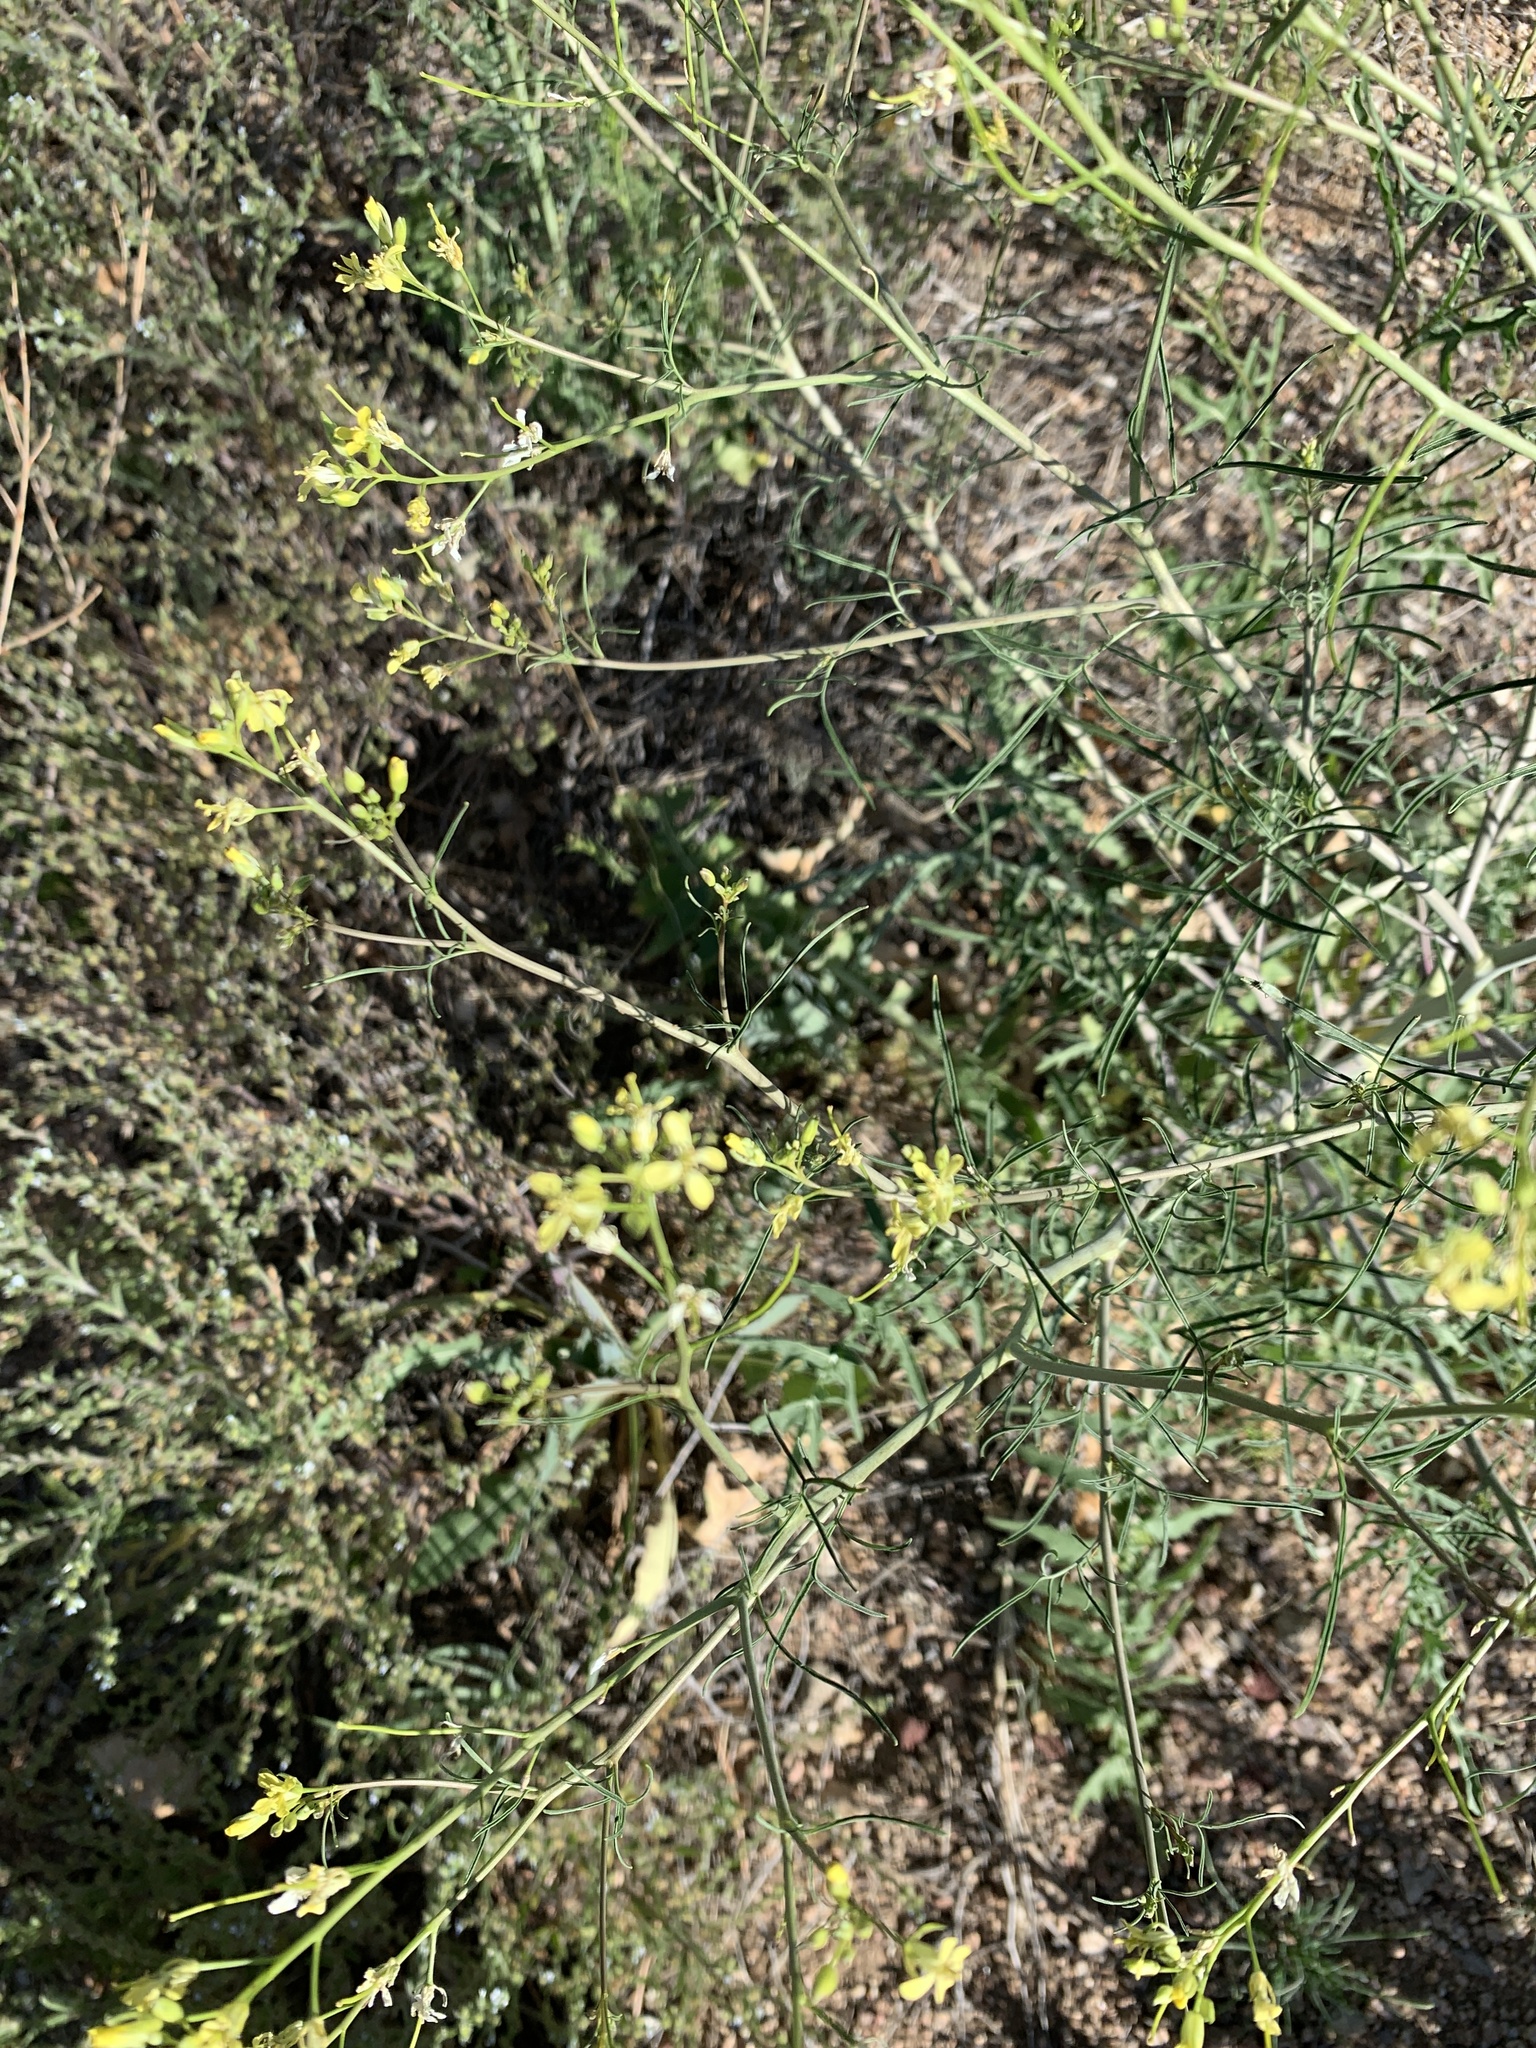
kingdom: Plantae
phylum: Tracheophyta
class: Magnoliopsida
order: Brassicales
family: Brassicaceae
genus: Sisymbrium
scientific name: Sisymbrium altissimum
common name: Tall rocket
